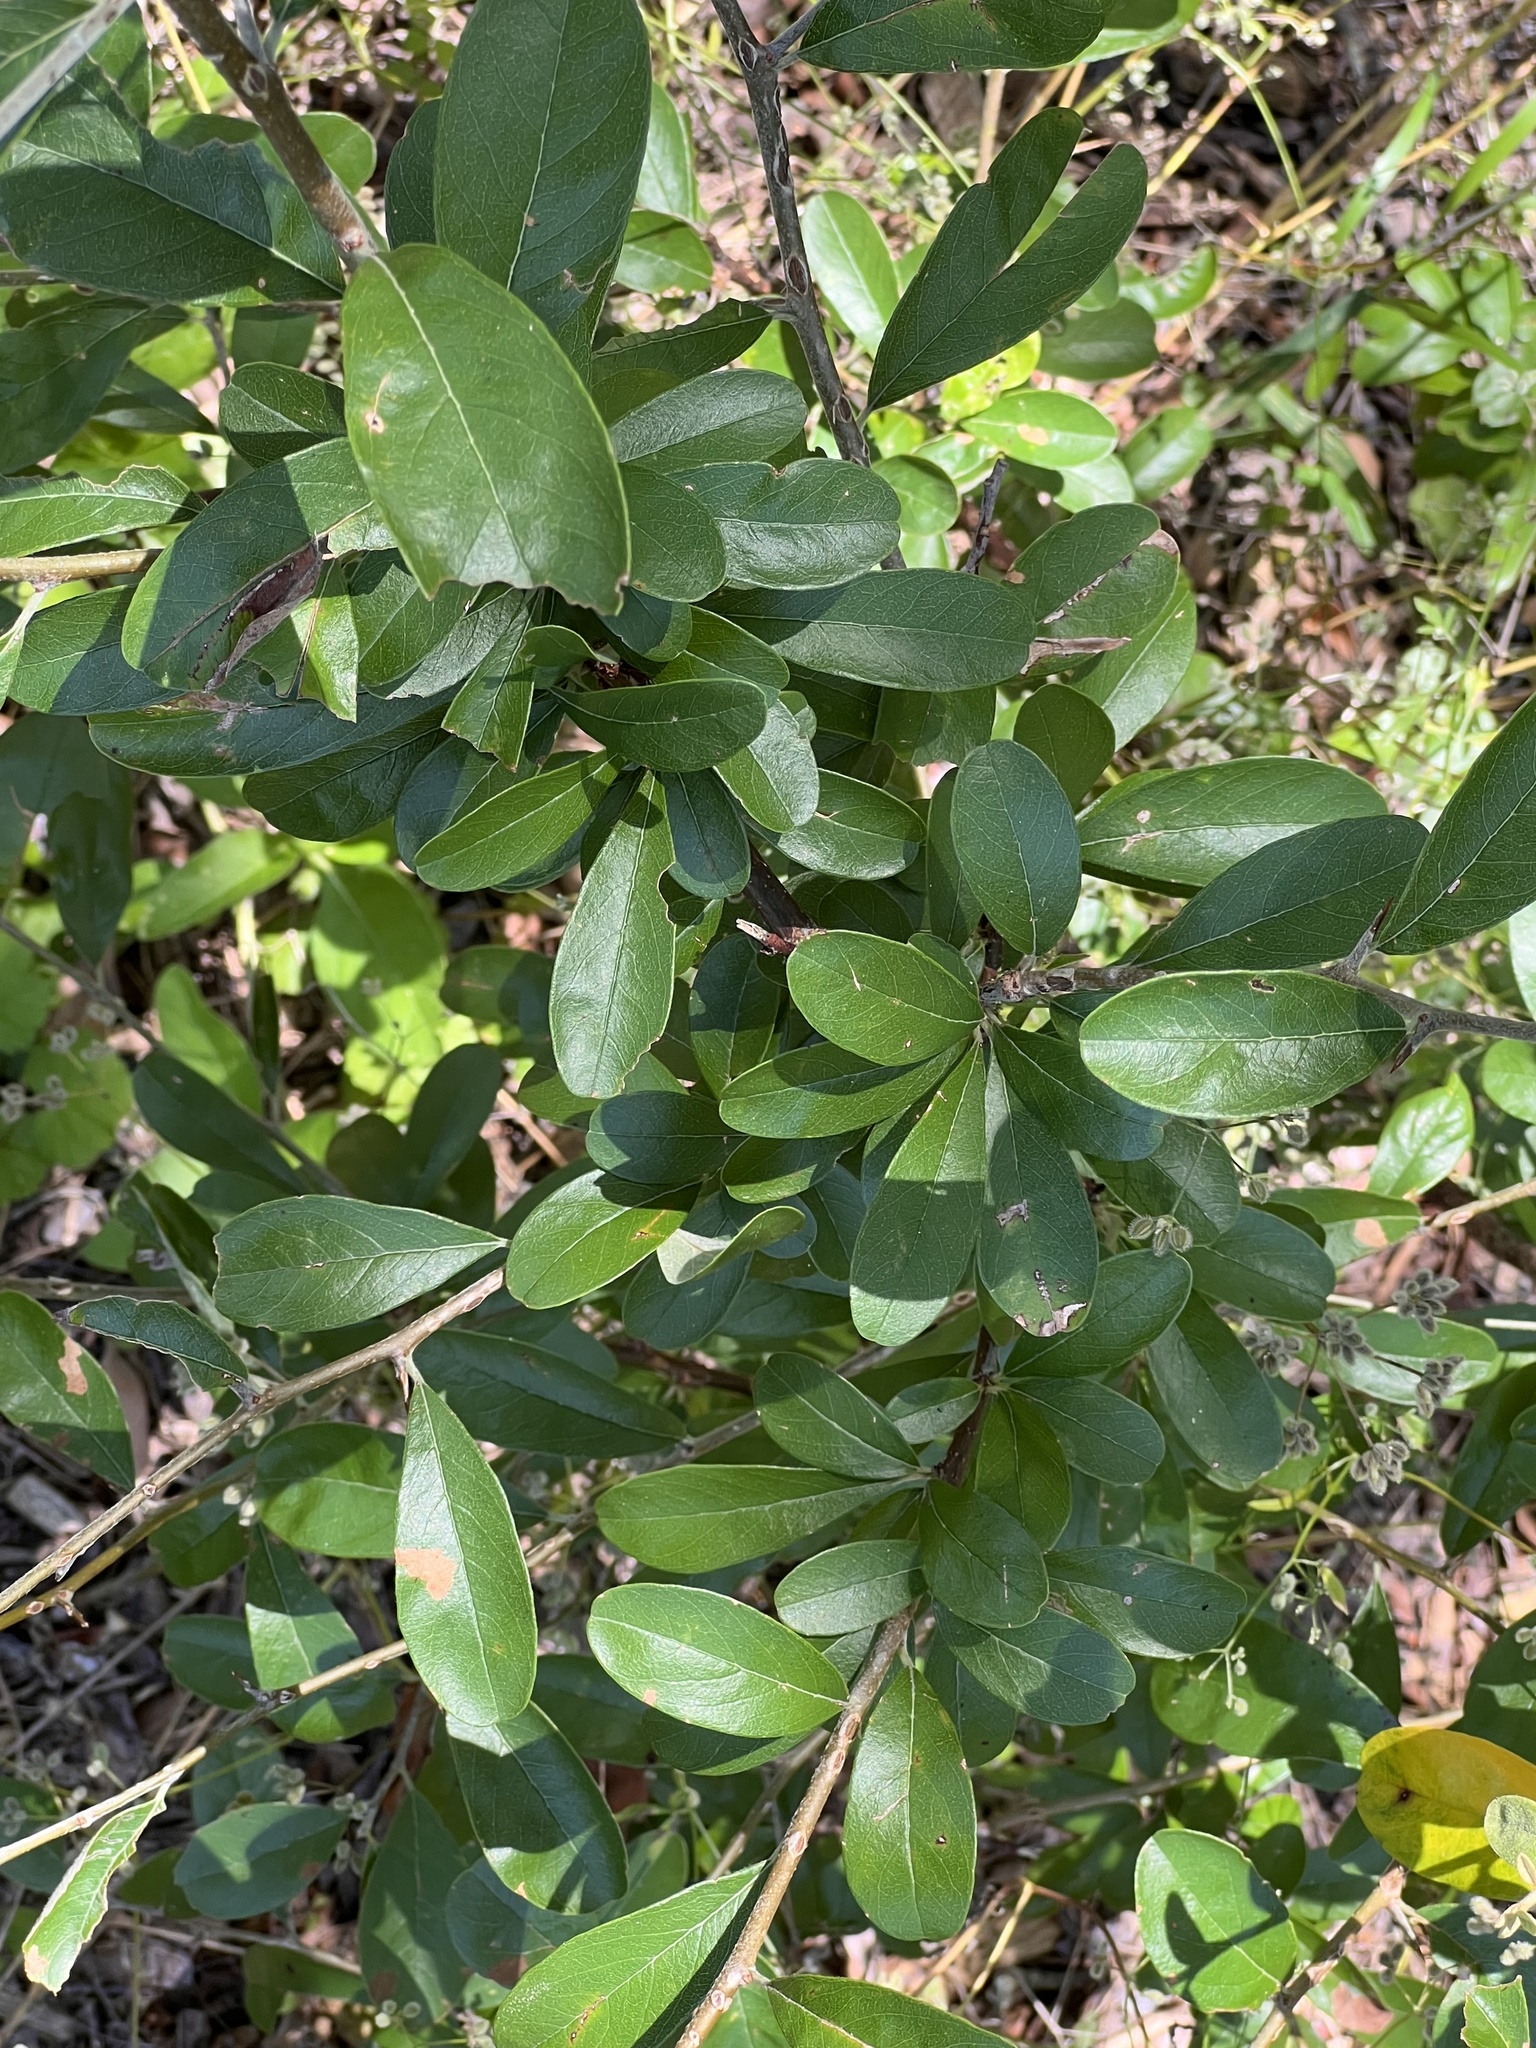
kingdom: Plantae
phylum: Tracheophyta
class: Magnoliopsida
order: Ericales
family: Sapotaceae
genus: Sideroxylon
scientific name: Sideroxylon lanuginosum
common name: Chittamwood
